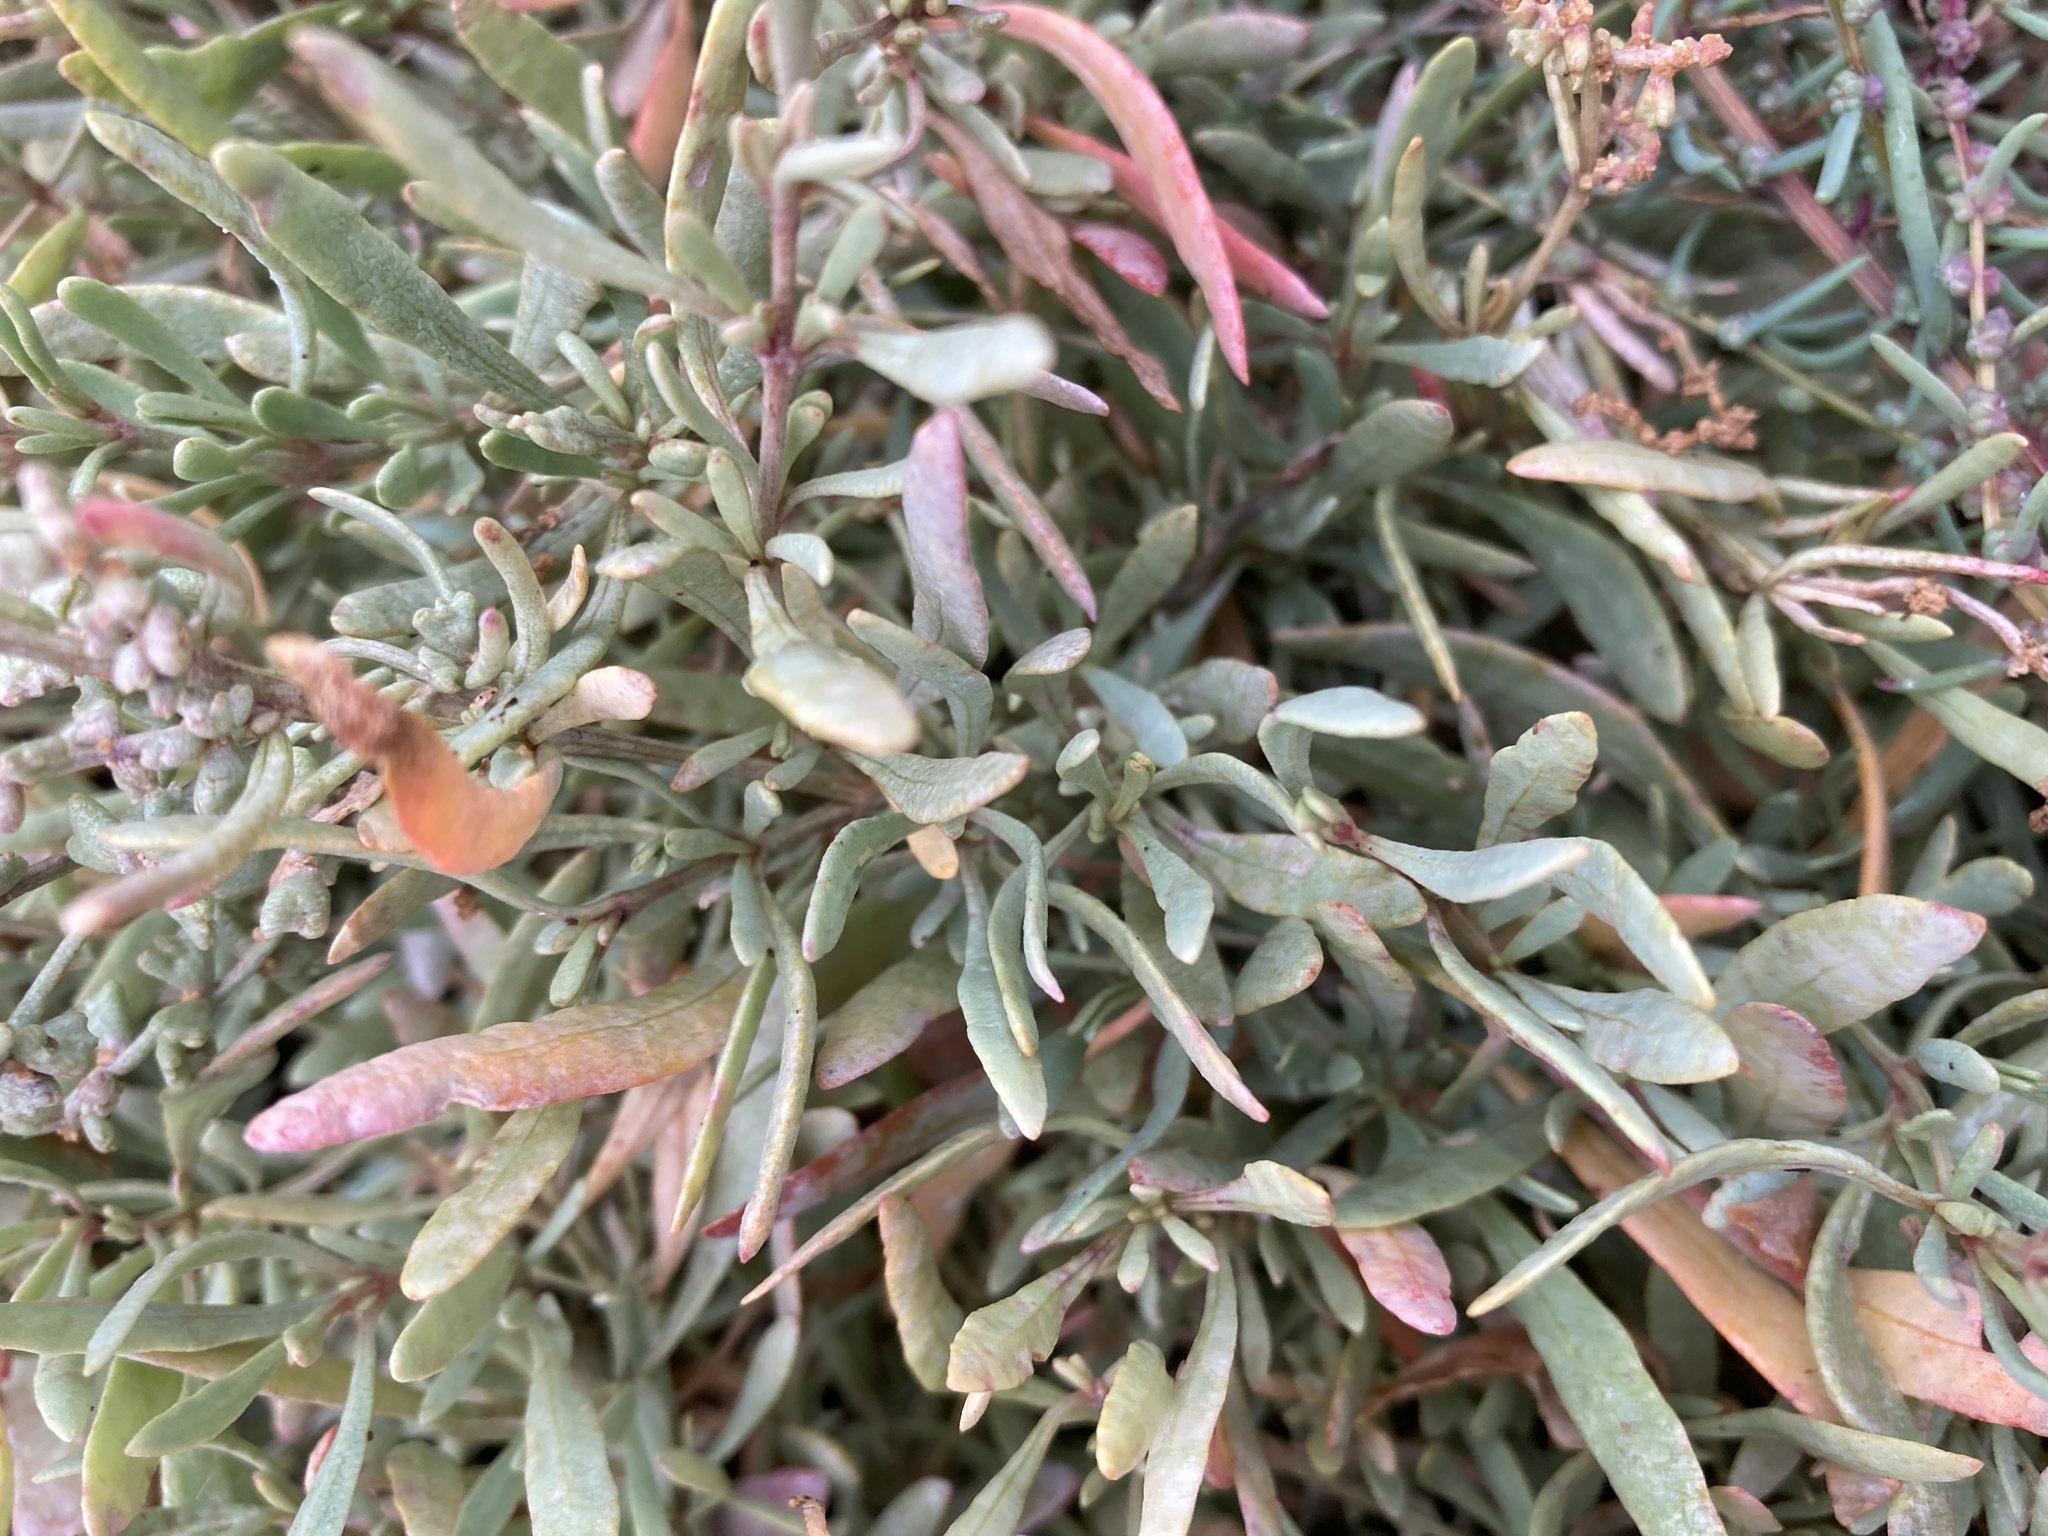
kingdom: Plantae
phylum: Tracheophyta
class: Magnoliopsida
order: Caryophyllales
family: Amaranthaceae
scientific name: Amaranthaceae
